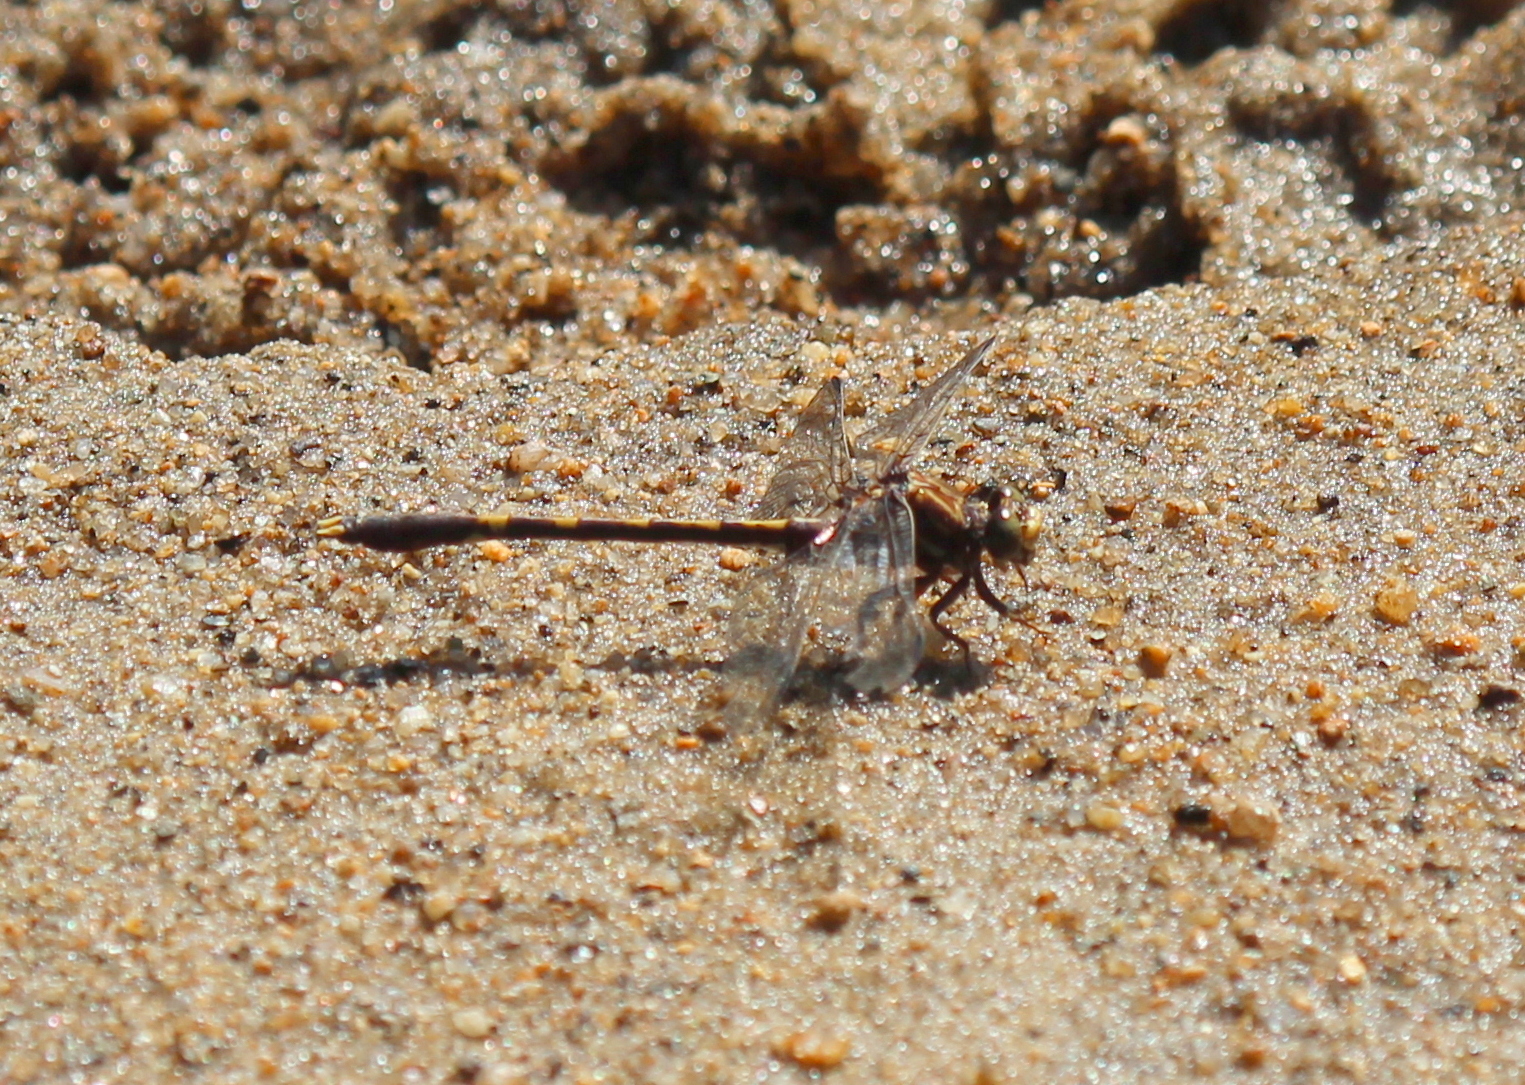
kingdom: Animalia
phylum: Arthropoda
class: Insecta
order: Odonata
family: Gomphidae
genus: Progomphus
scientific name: Progomphus obscurus
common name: Common sanddragon
